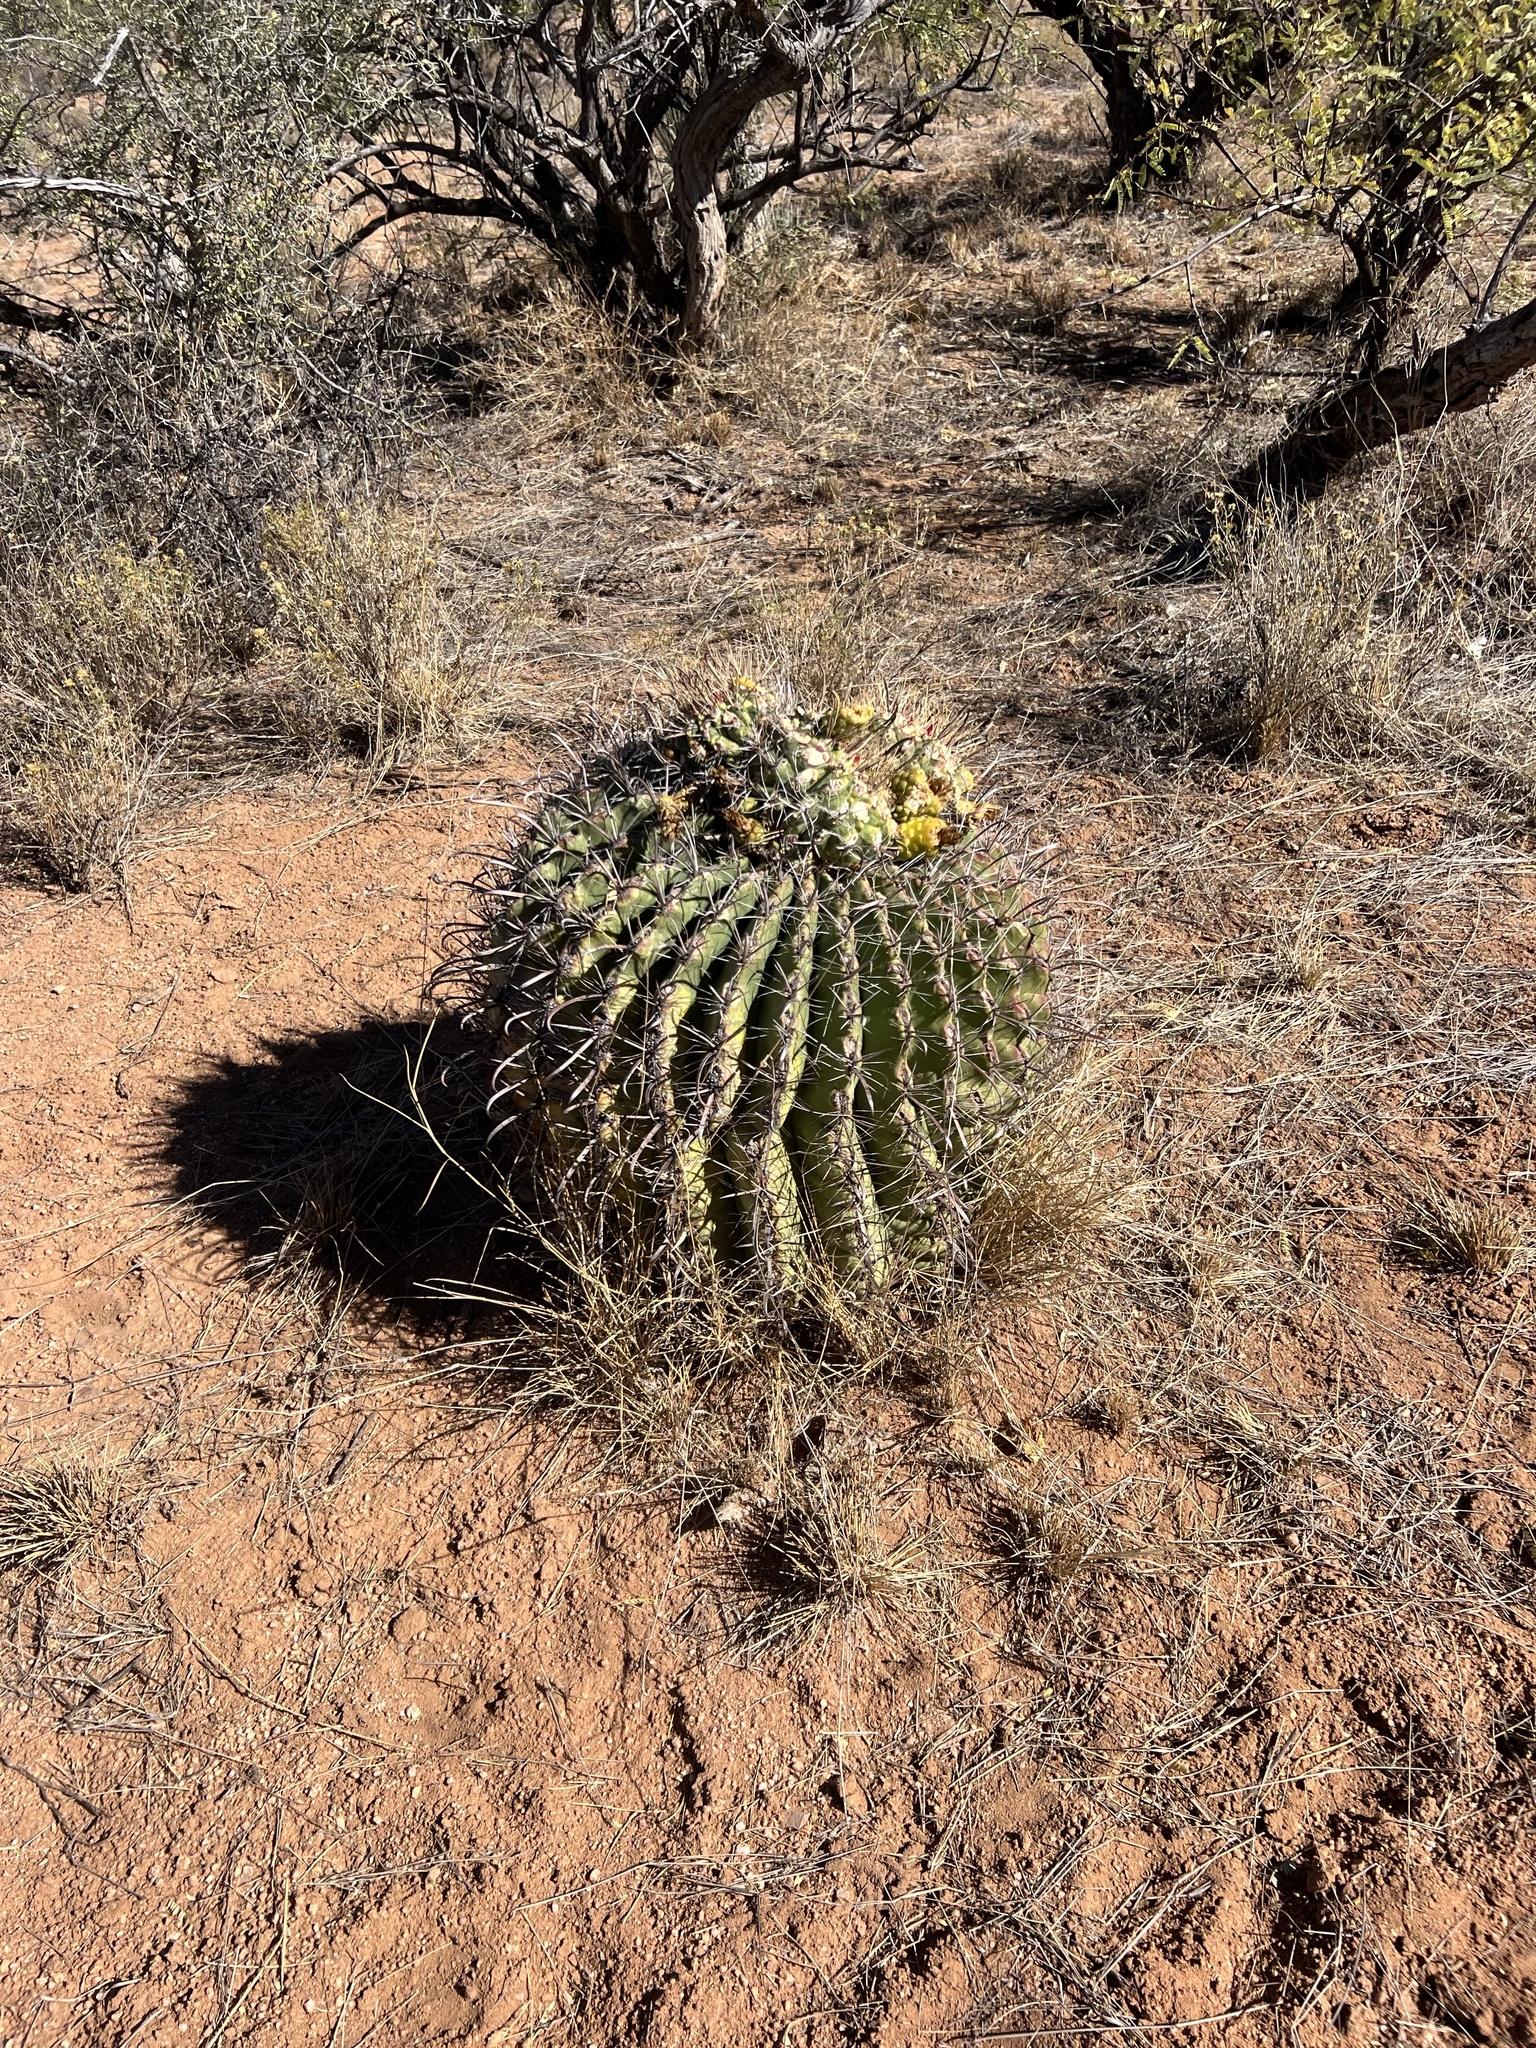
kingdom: Plantae
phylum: Tracheophyta
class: Magnoliopsida
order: Caryophyllales
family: Cactaceae
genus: Ferocactus
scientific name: Ferocactus wislizeni
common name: Candy barrel cactus
